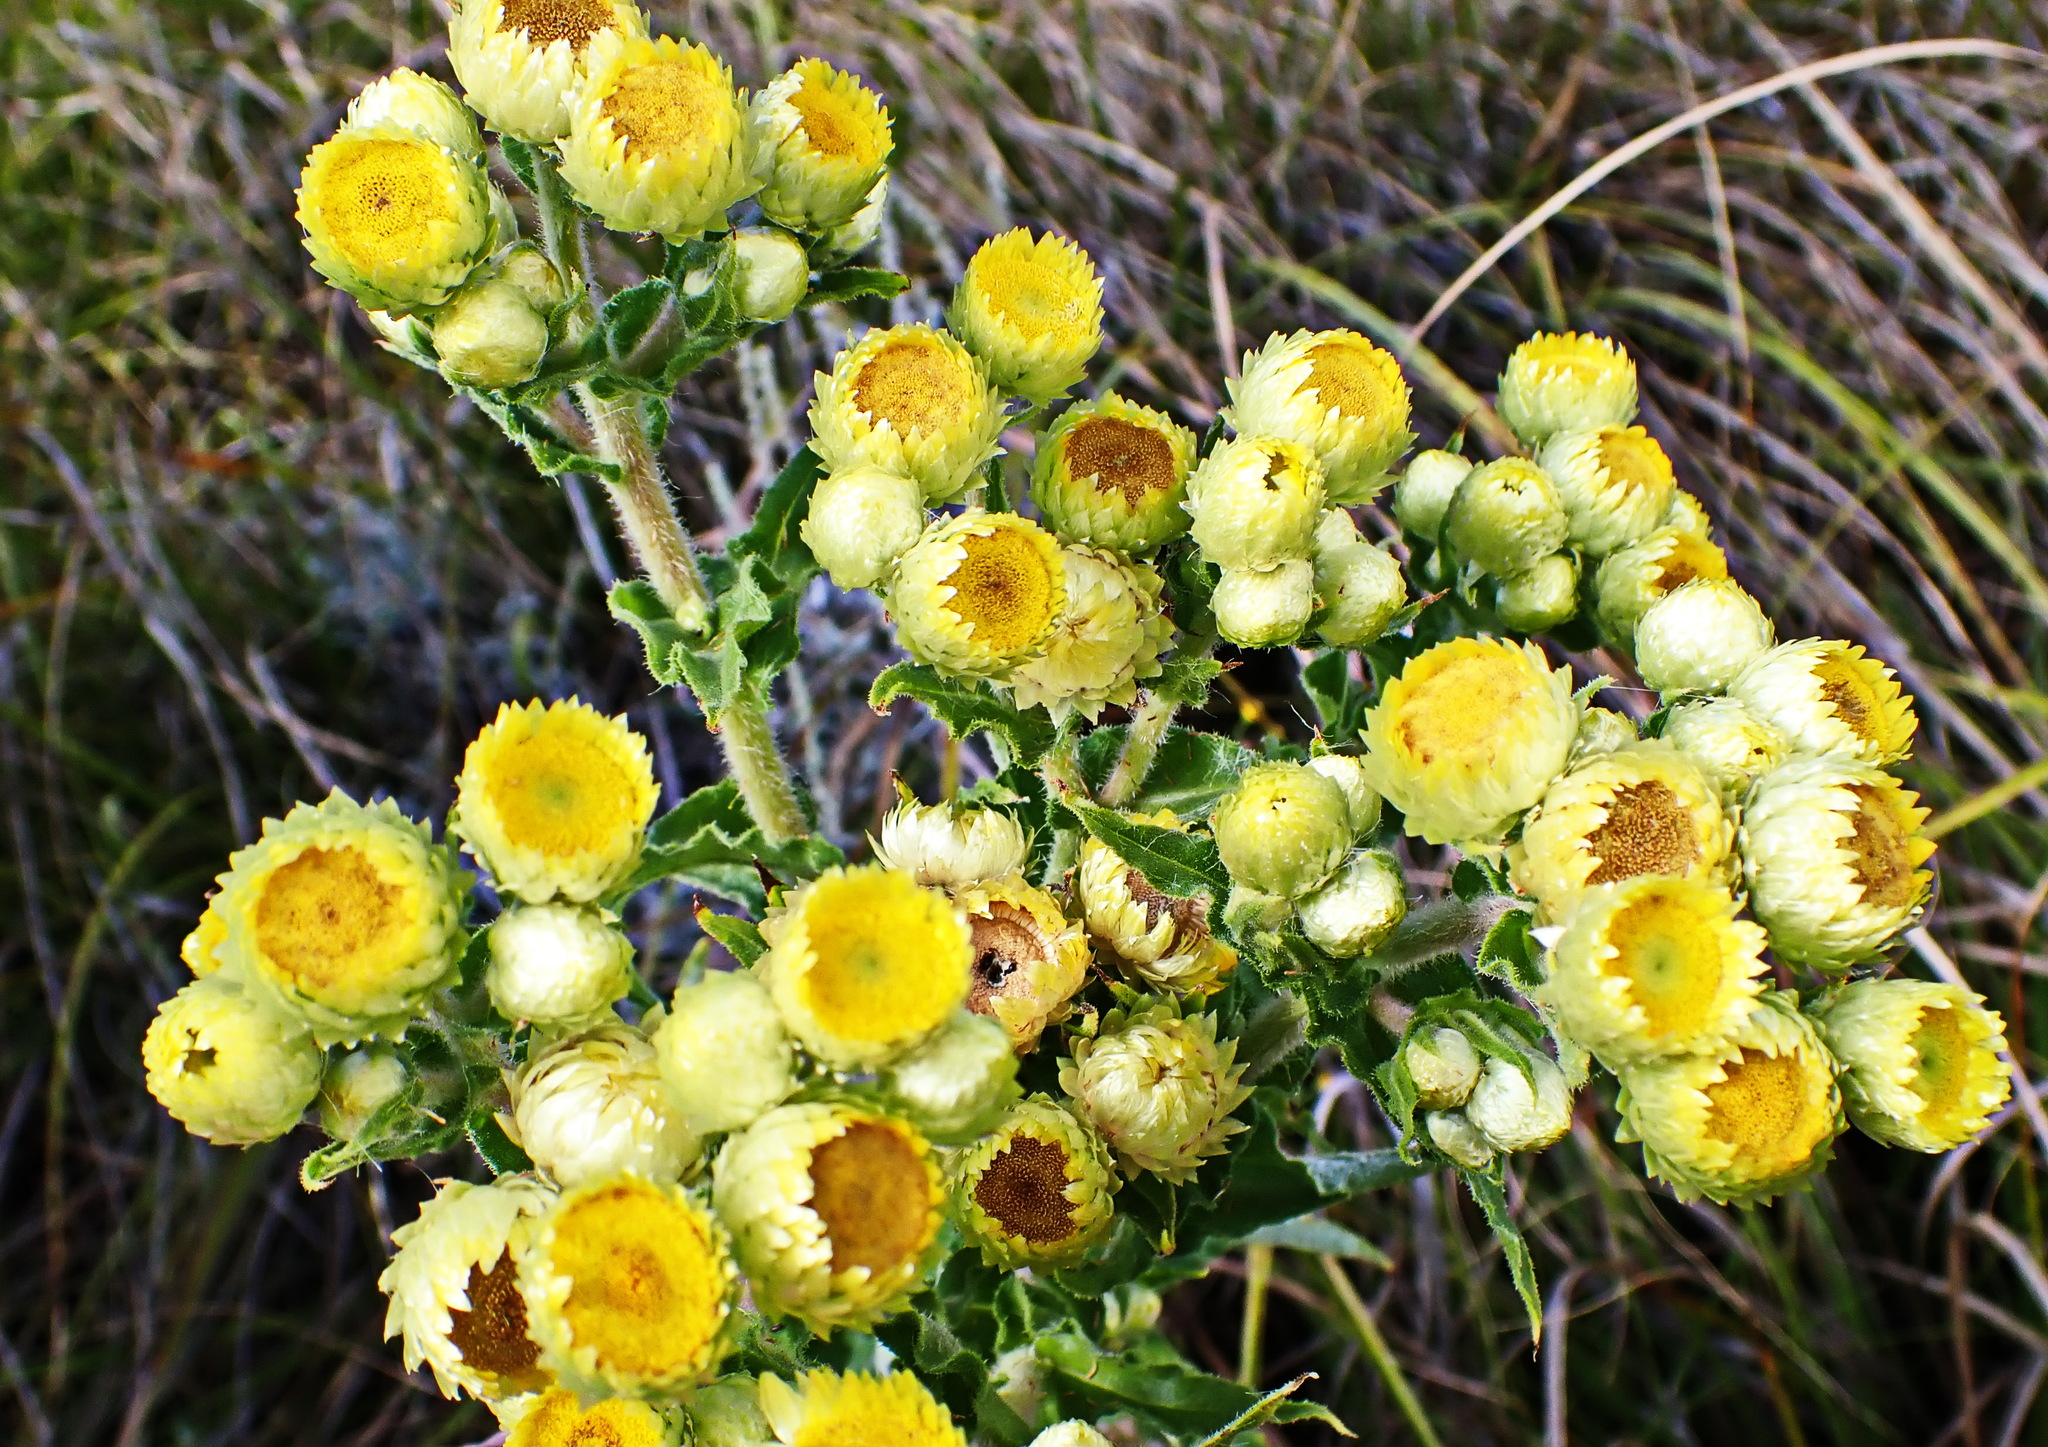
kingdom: Plantae
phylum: Tracheophyta
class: Magnoliopsida
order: Asterales
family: Asteraceae
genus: Helichrysum
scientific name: Helichrysum foetidum
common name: Stinking everlasting
